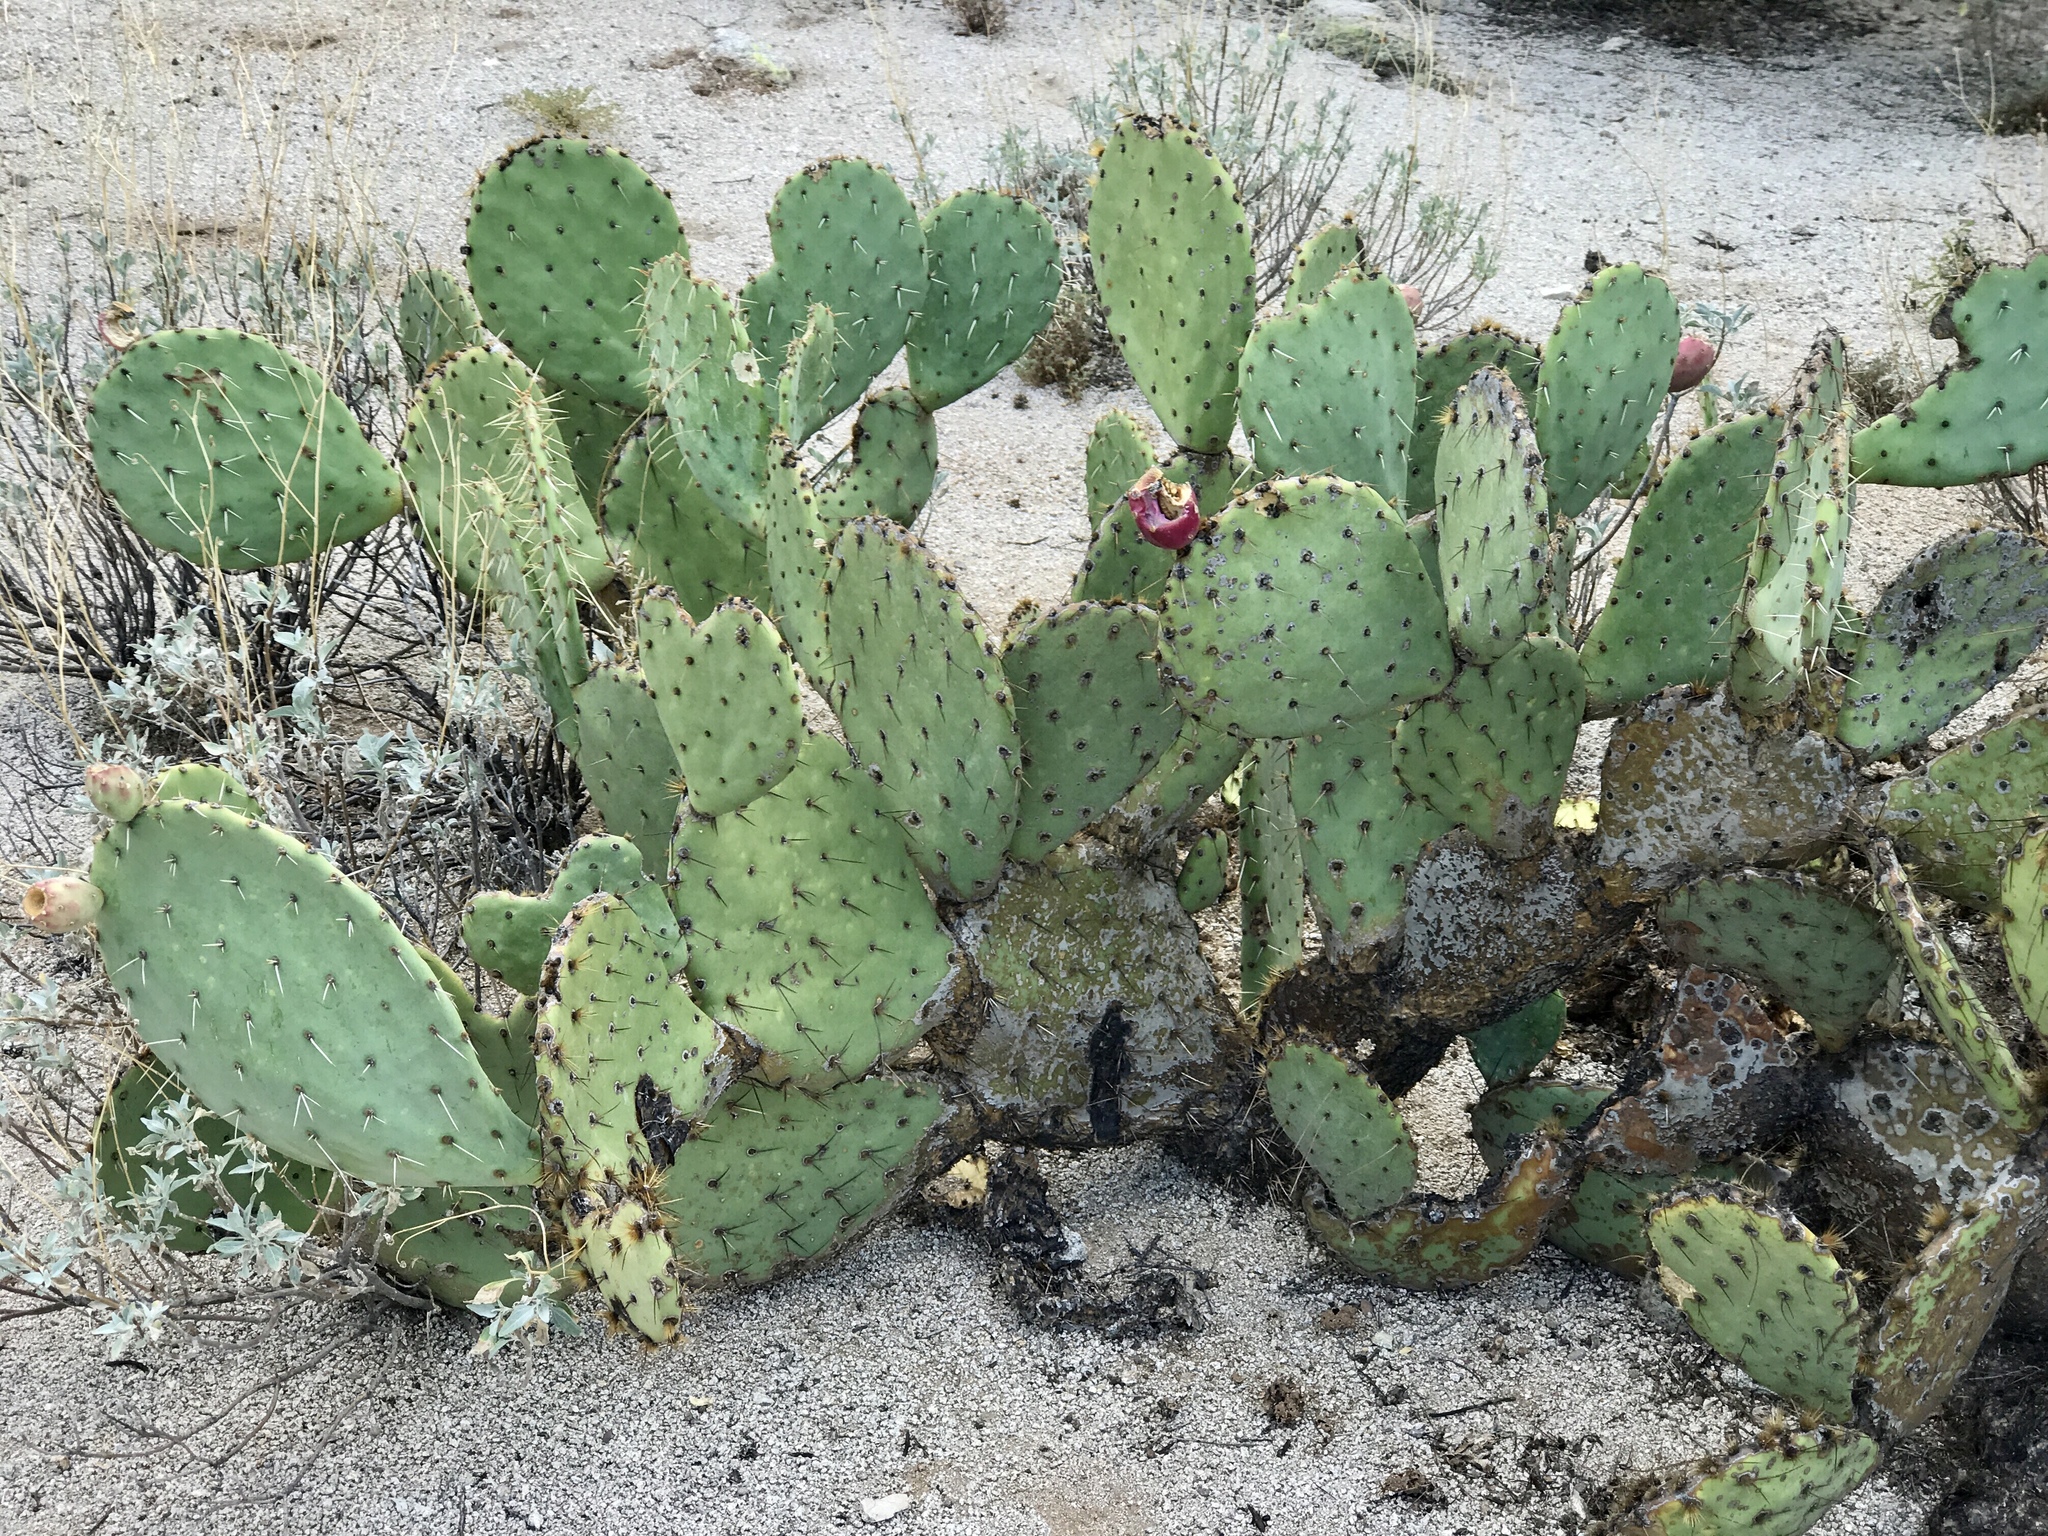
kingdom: Plantae
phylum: Tracheophyta
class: Magnoliopsida
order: Caryophyllales
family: Cactaceae
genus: Opuntia
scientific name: Opuntia engelmannii
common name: Cactus-apple
